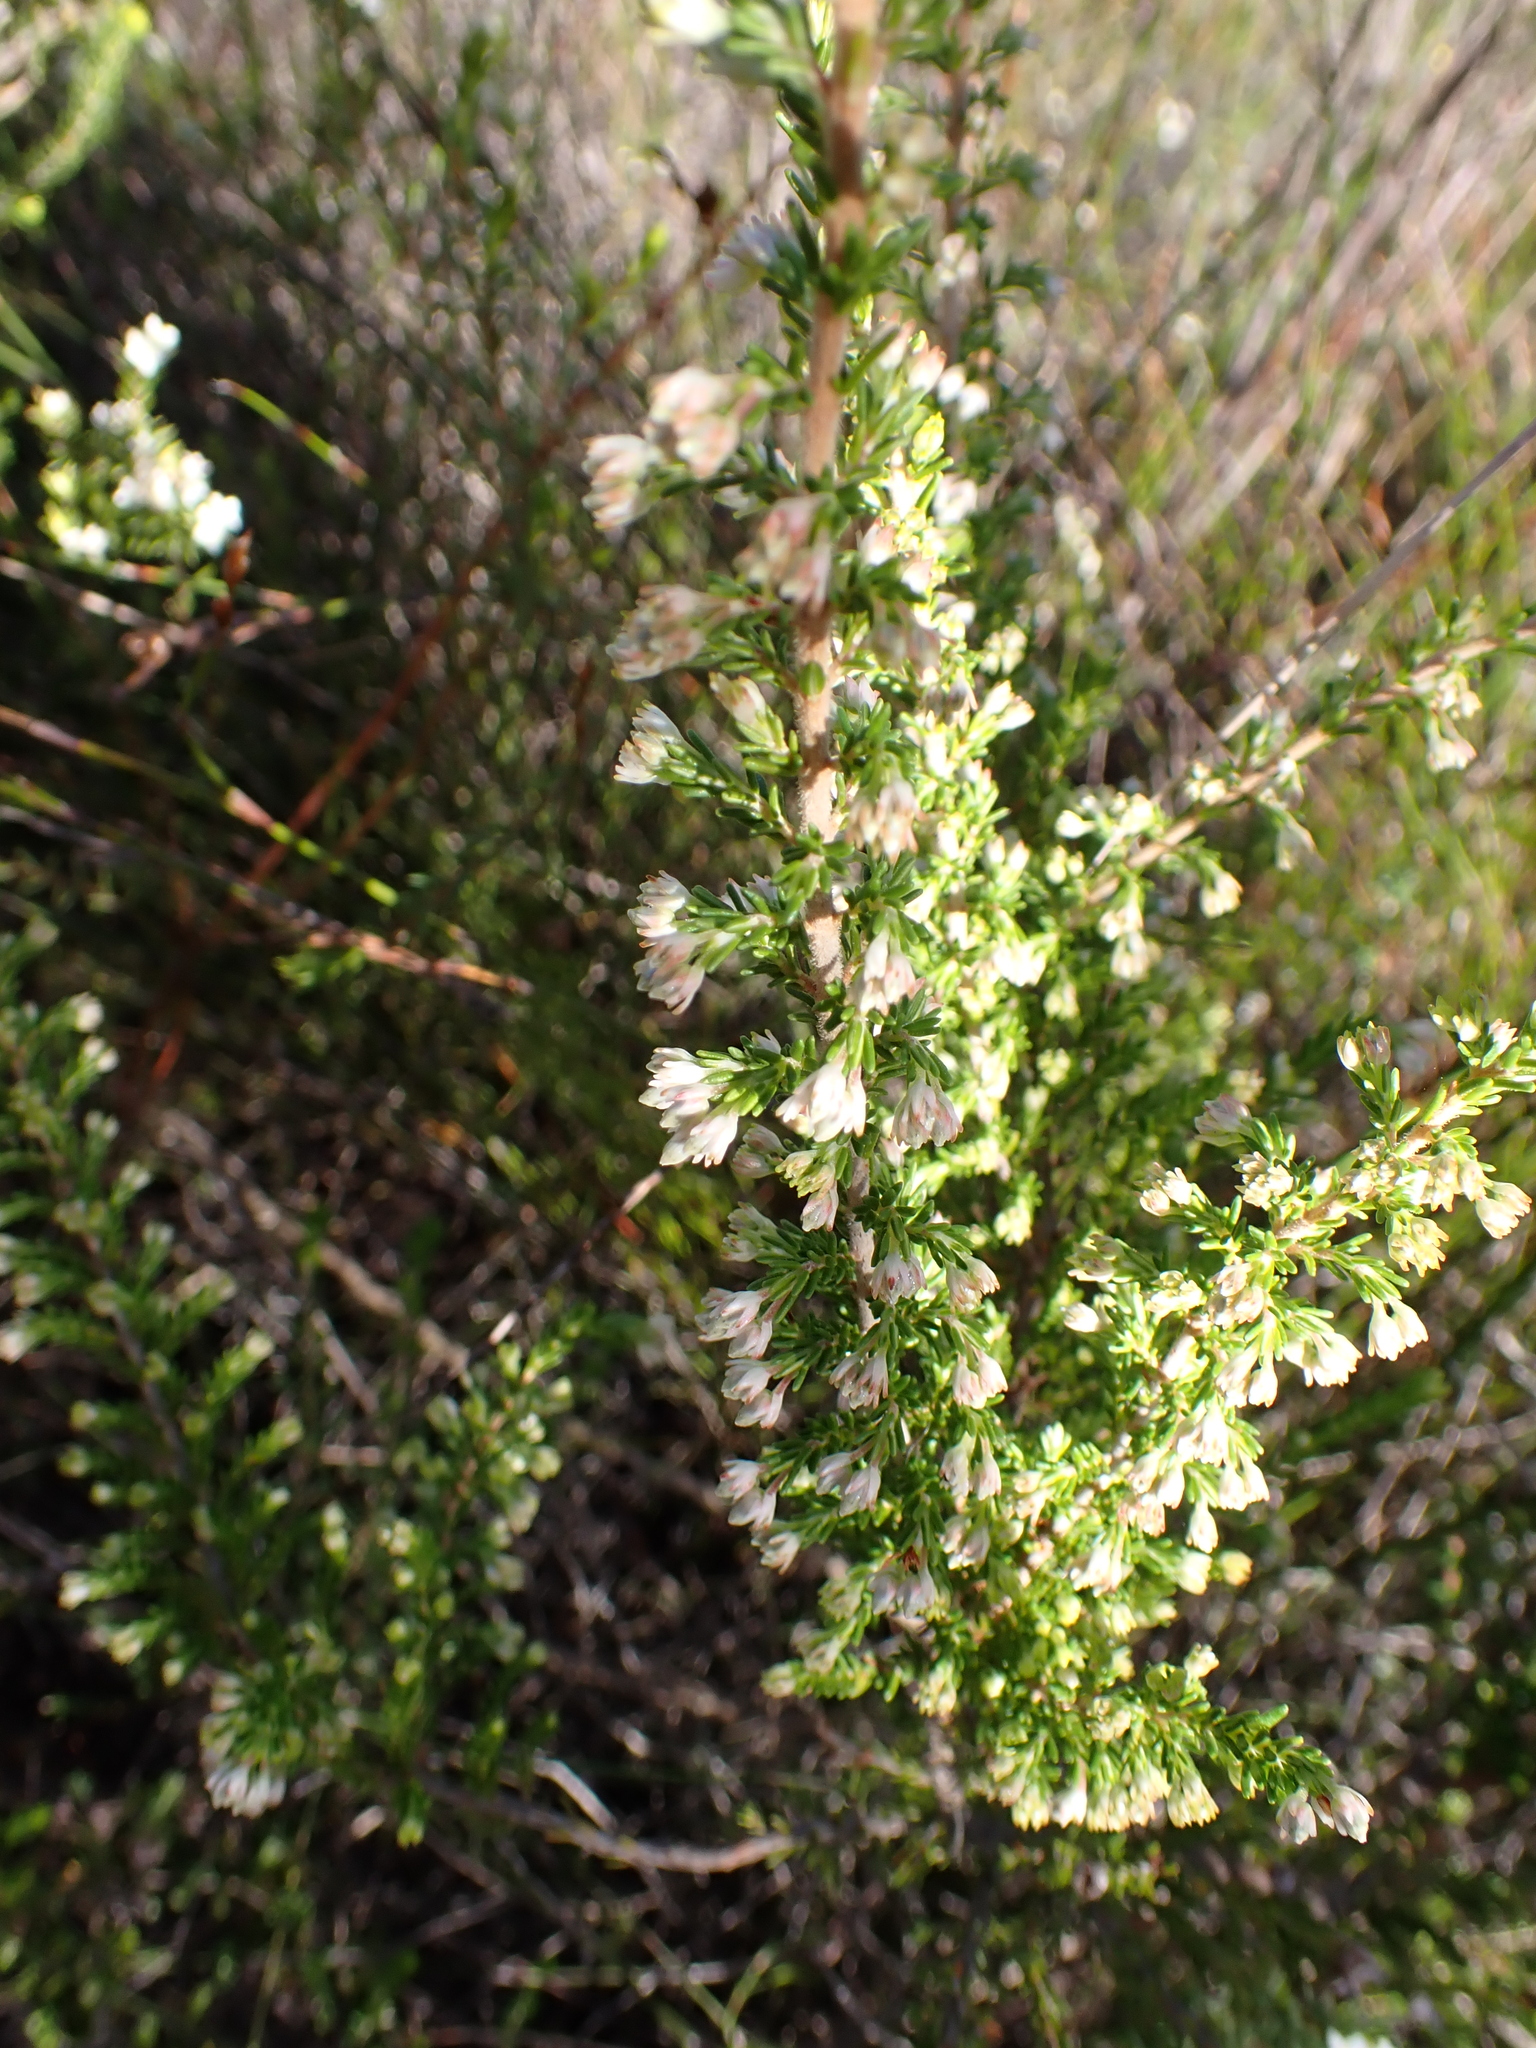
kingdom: Plantae
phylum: Tracheophyta
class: Magnoliopsida
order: Ericales
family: Ericaceae
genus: Erica
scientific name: Erica glomiflora
